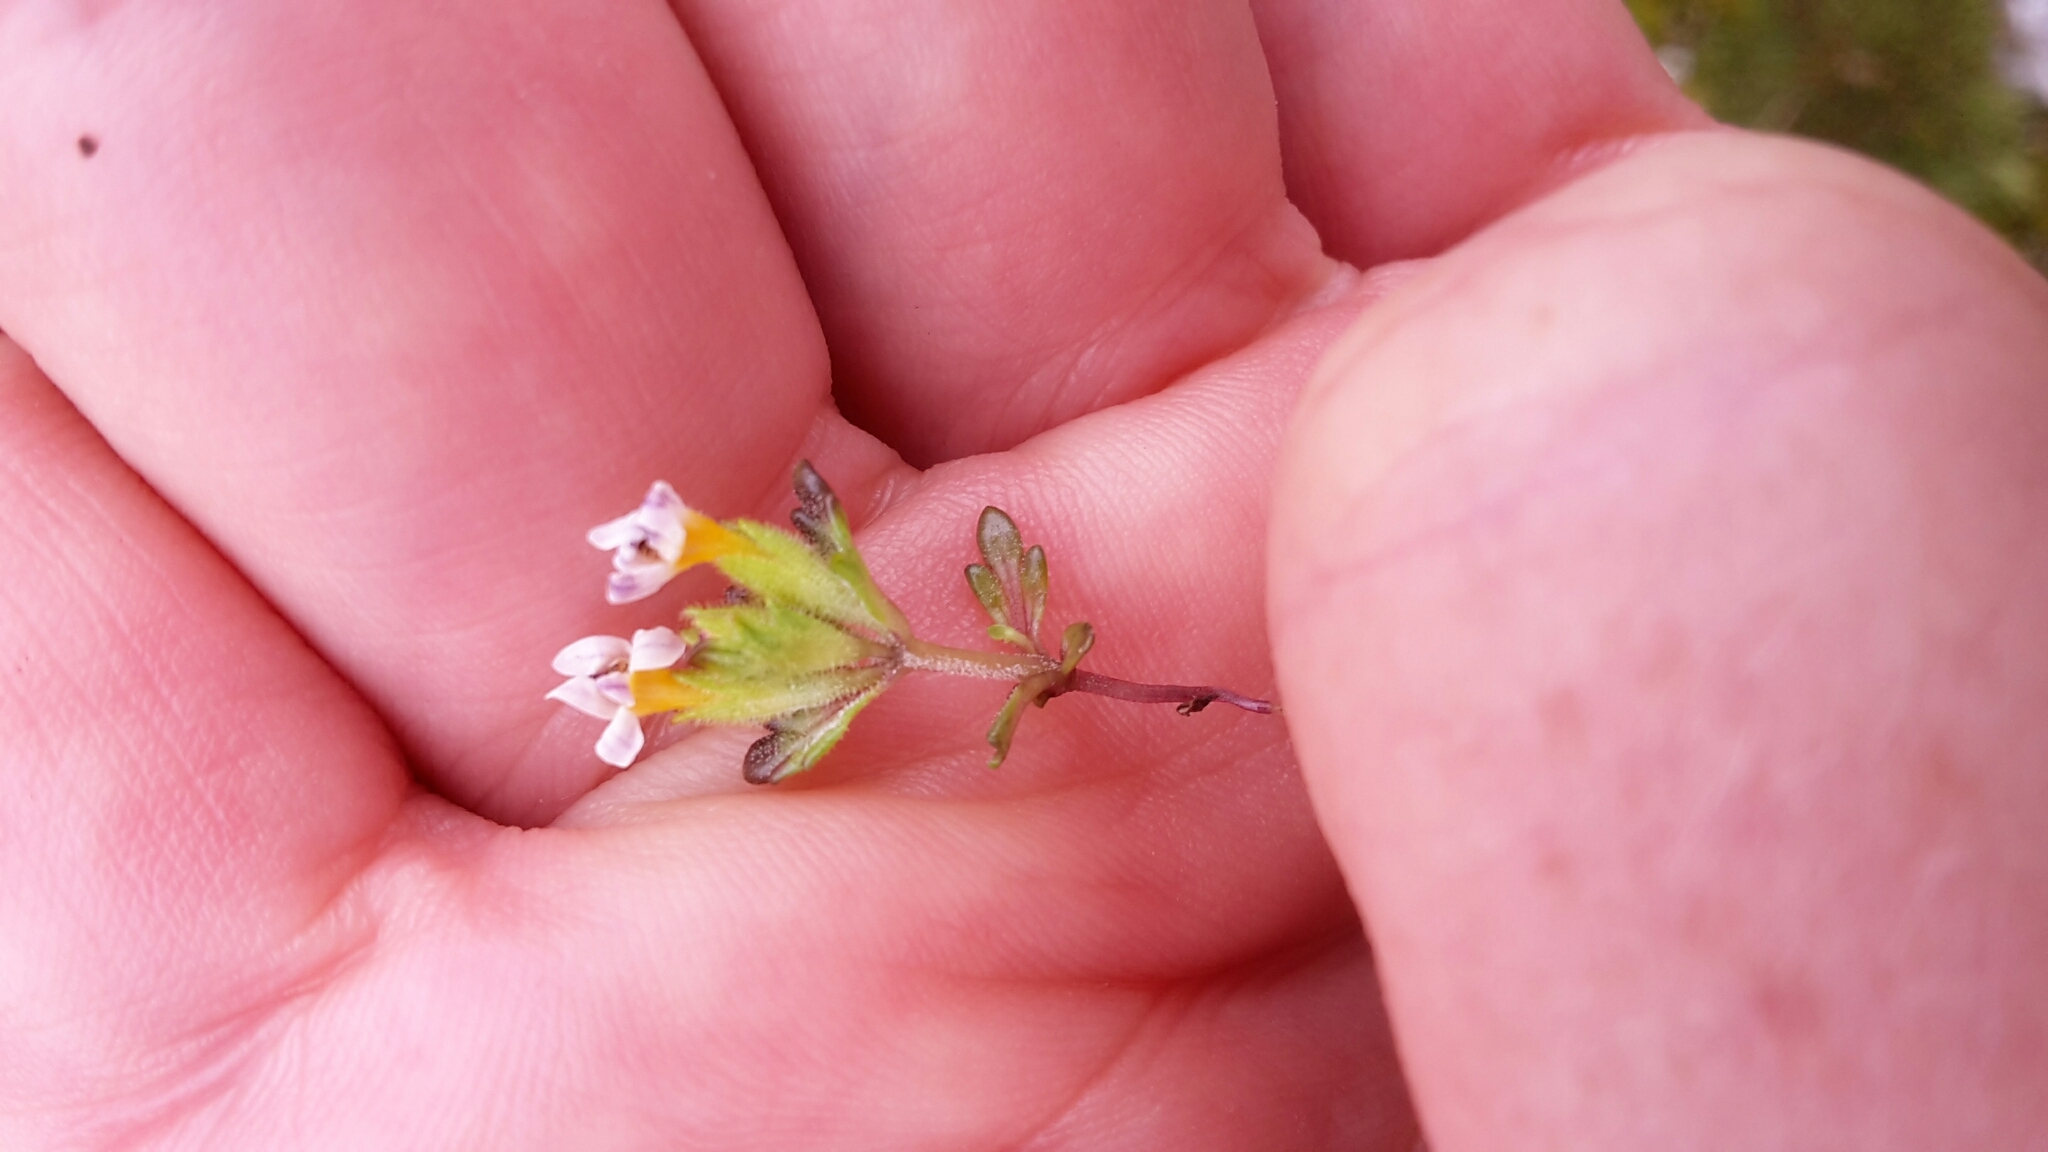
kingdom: Plantae
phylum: Tracheophyta
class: Magnoliopsida
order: Lamiales
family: Orobanchaceae
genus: Euphrasia
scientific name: Euphrasia zelandica
